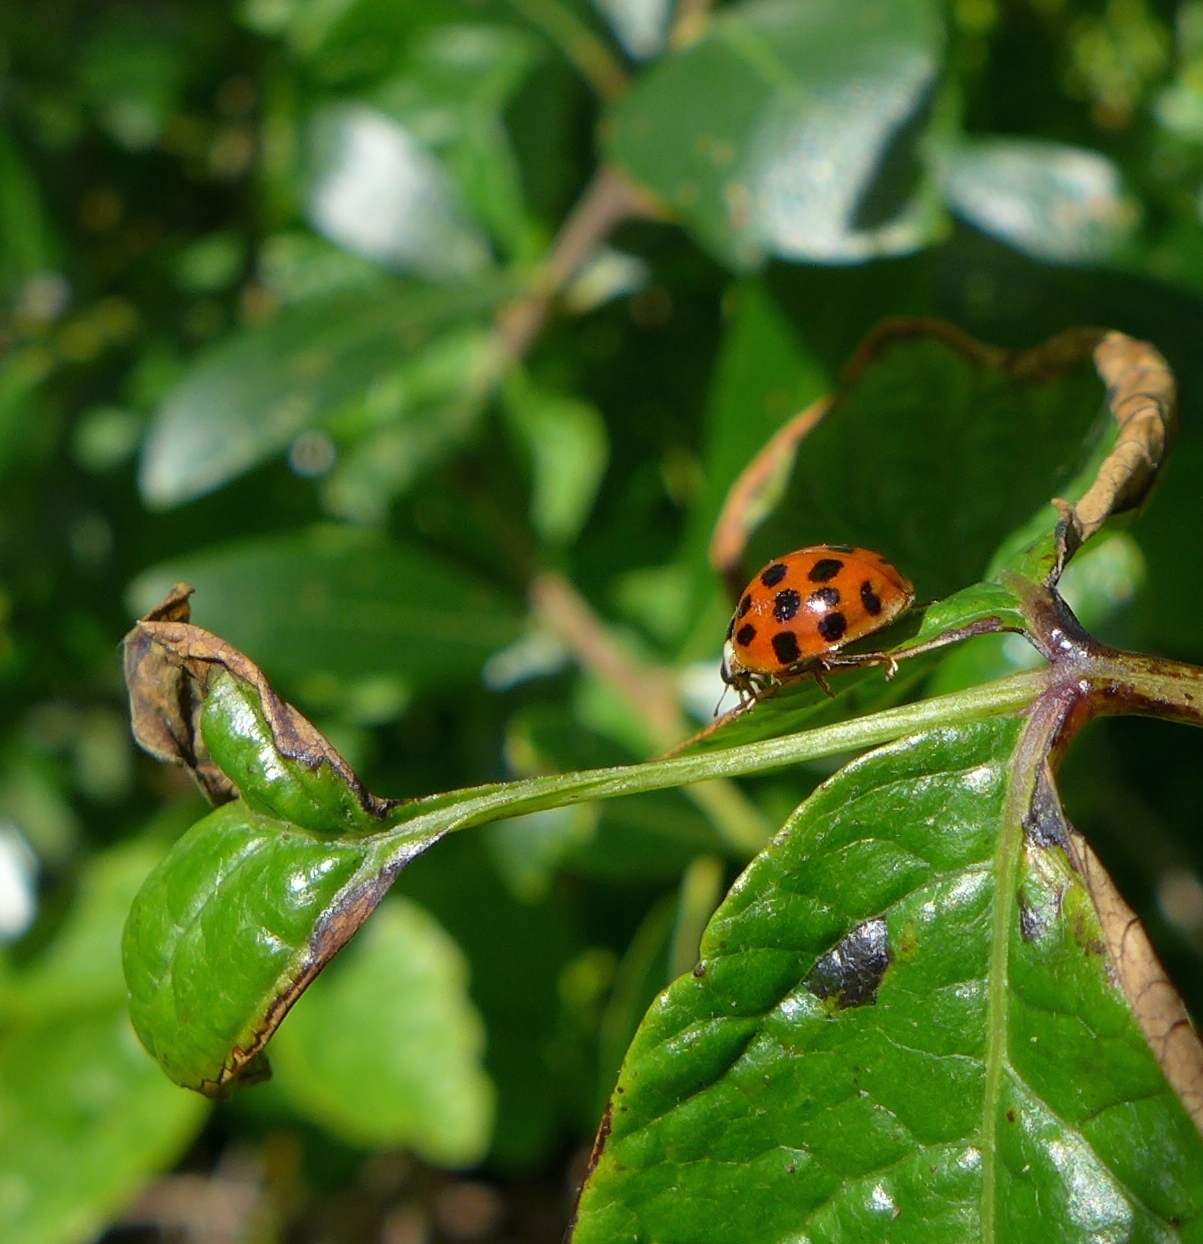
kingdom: Animalia
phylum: Arthropoda
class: Insecta
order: Coleoptera
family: Coccinellidae
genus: Harmonia
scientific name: Harmonia axyridis
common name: Harlequin ladybird
